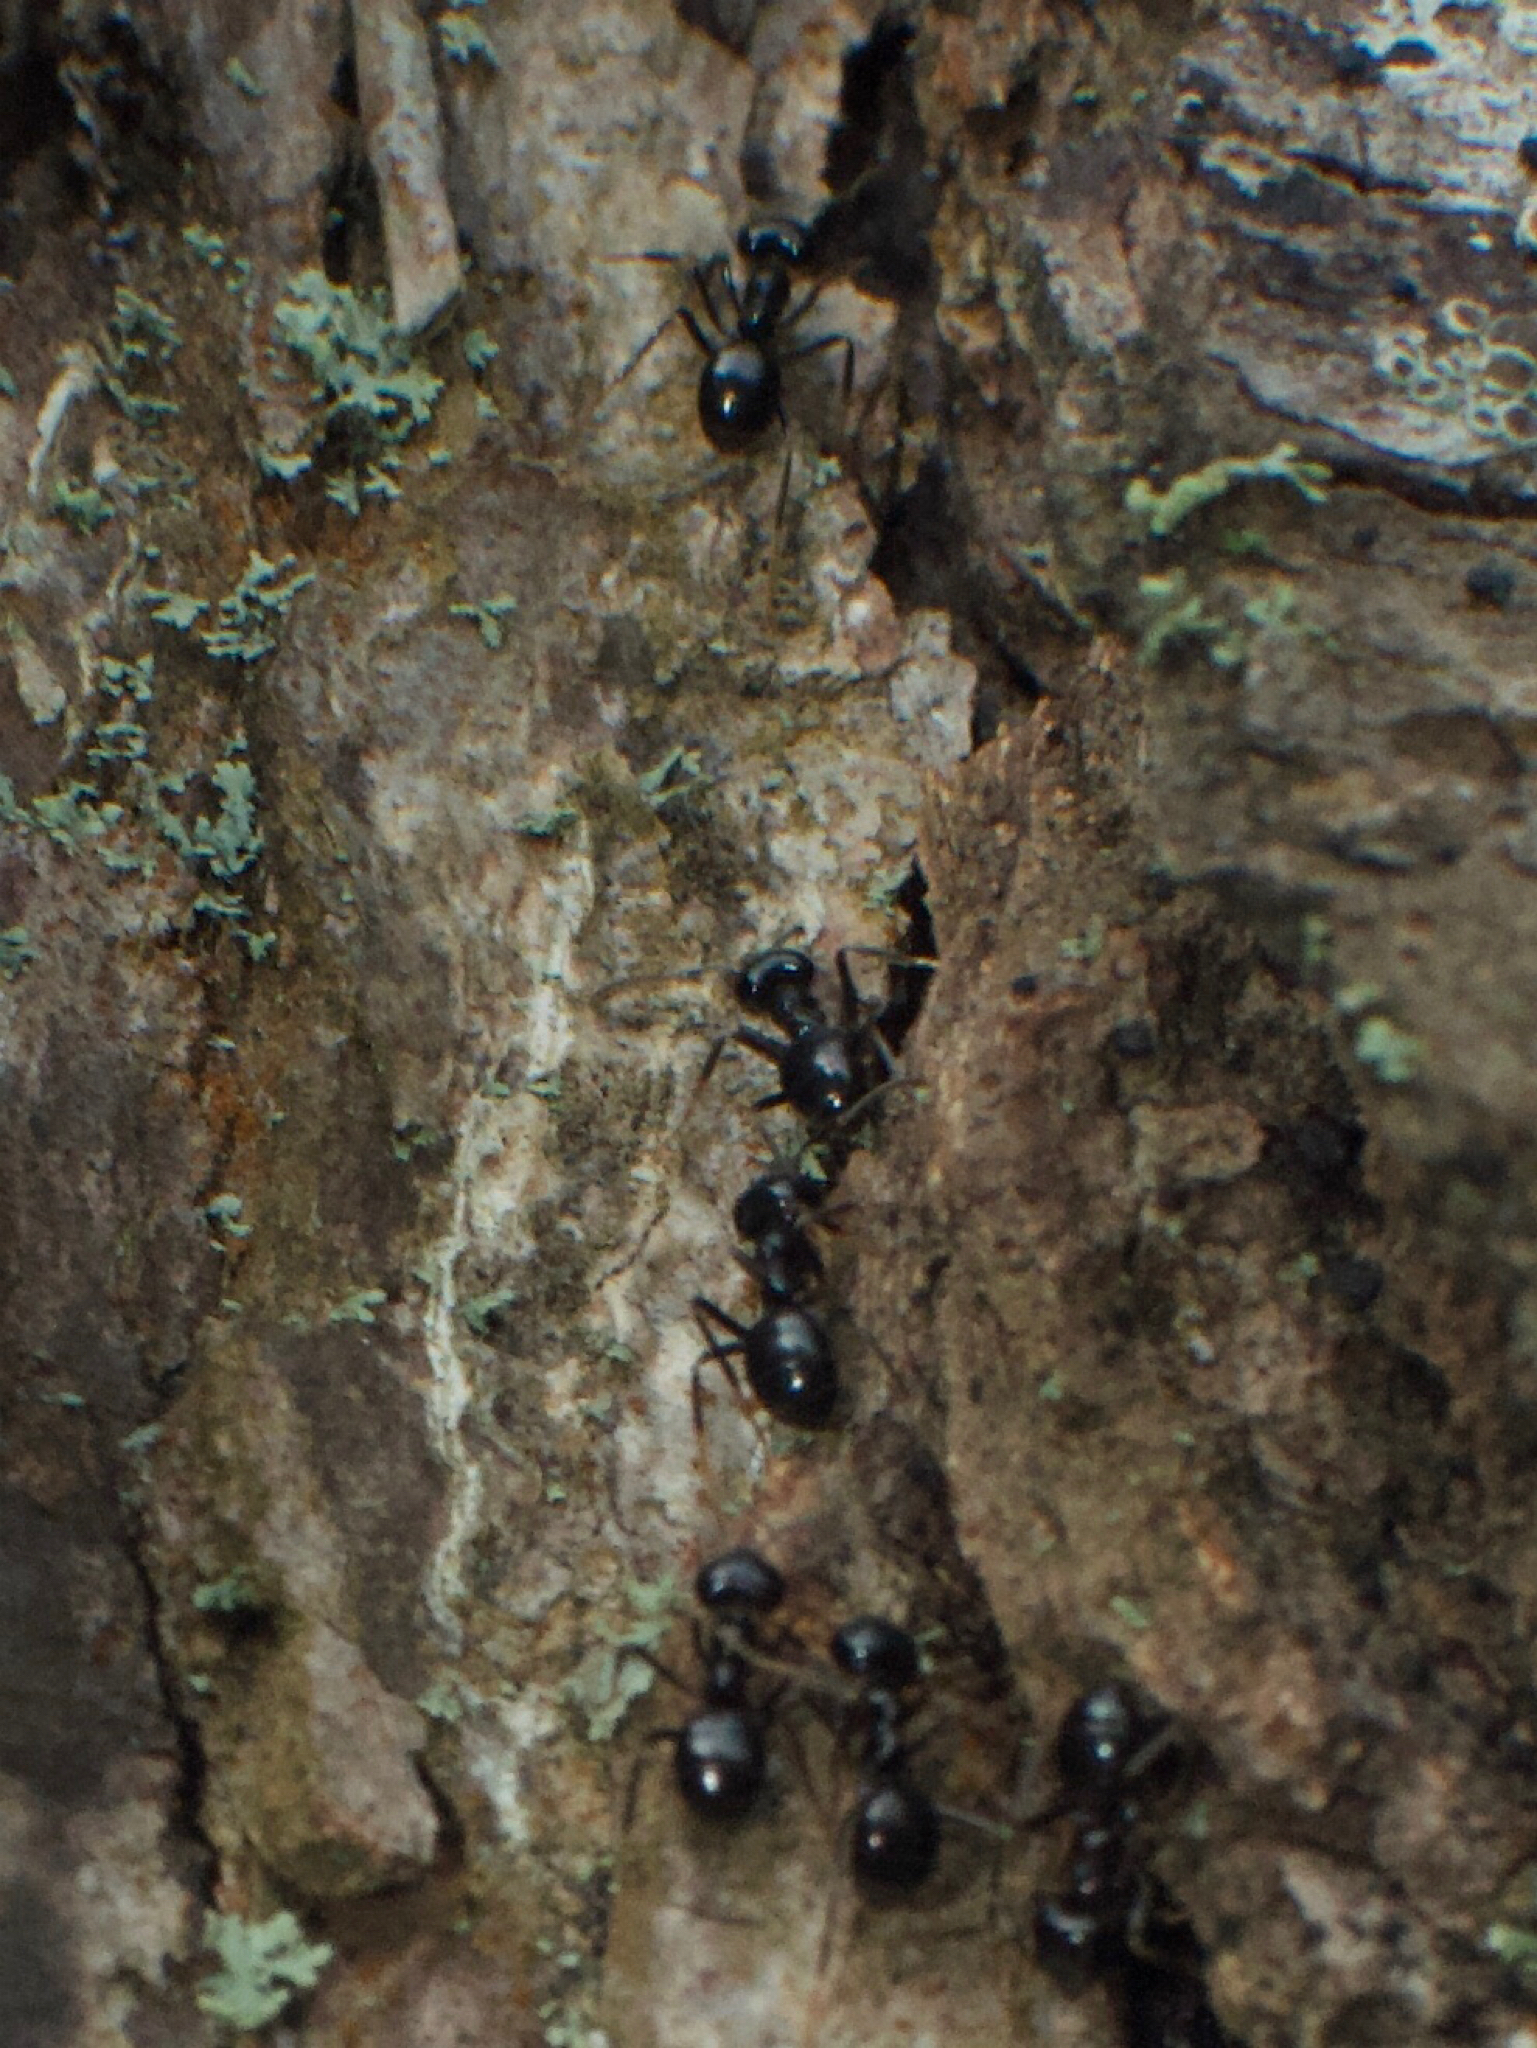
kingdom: Animalia
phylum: Arthropoda
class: Insecta
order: Hymenoptera
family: Formicidae
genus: Lasius
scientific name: Lasius fuliginosus
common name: Jet ant
